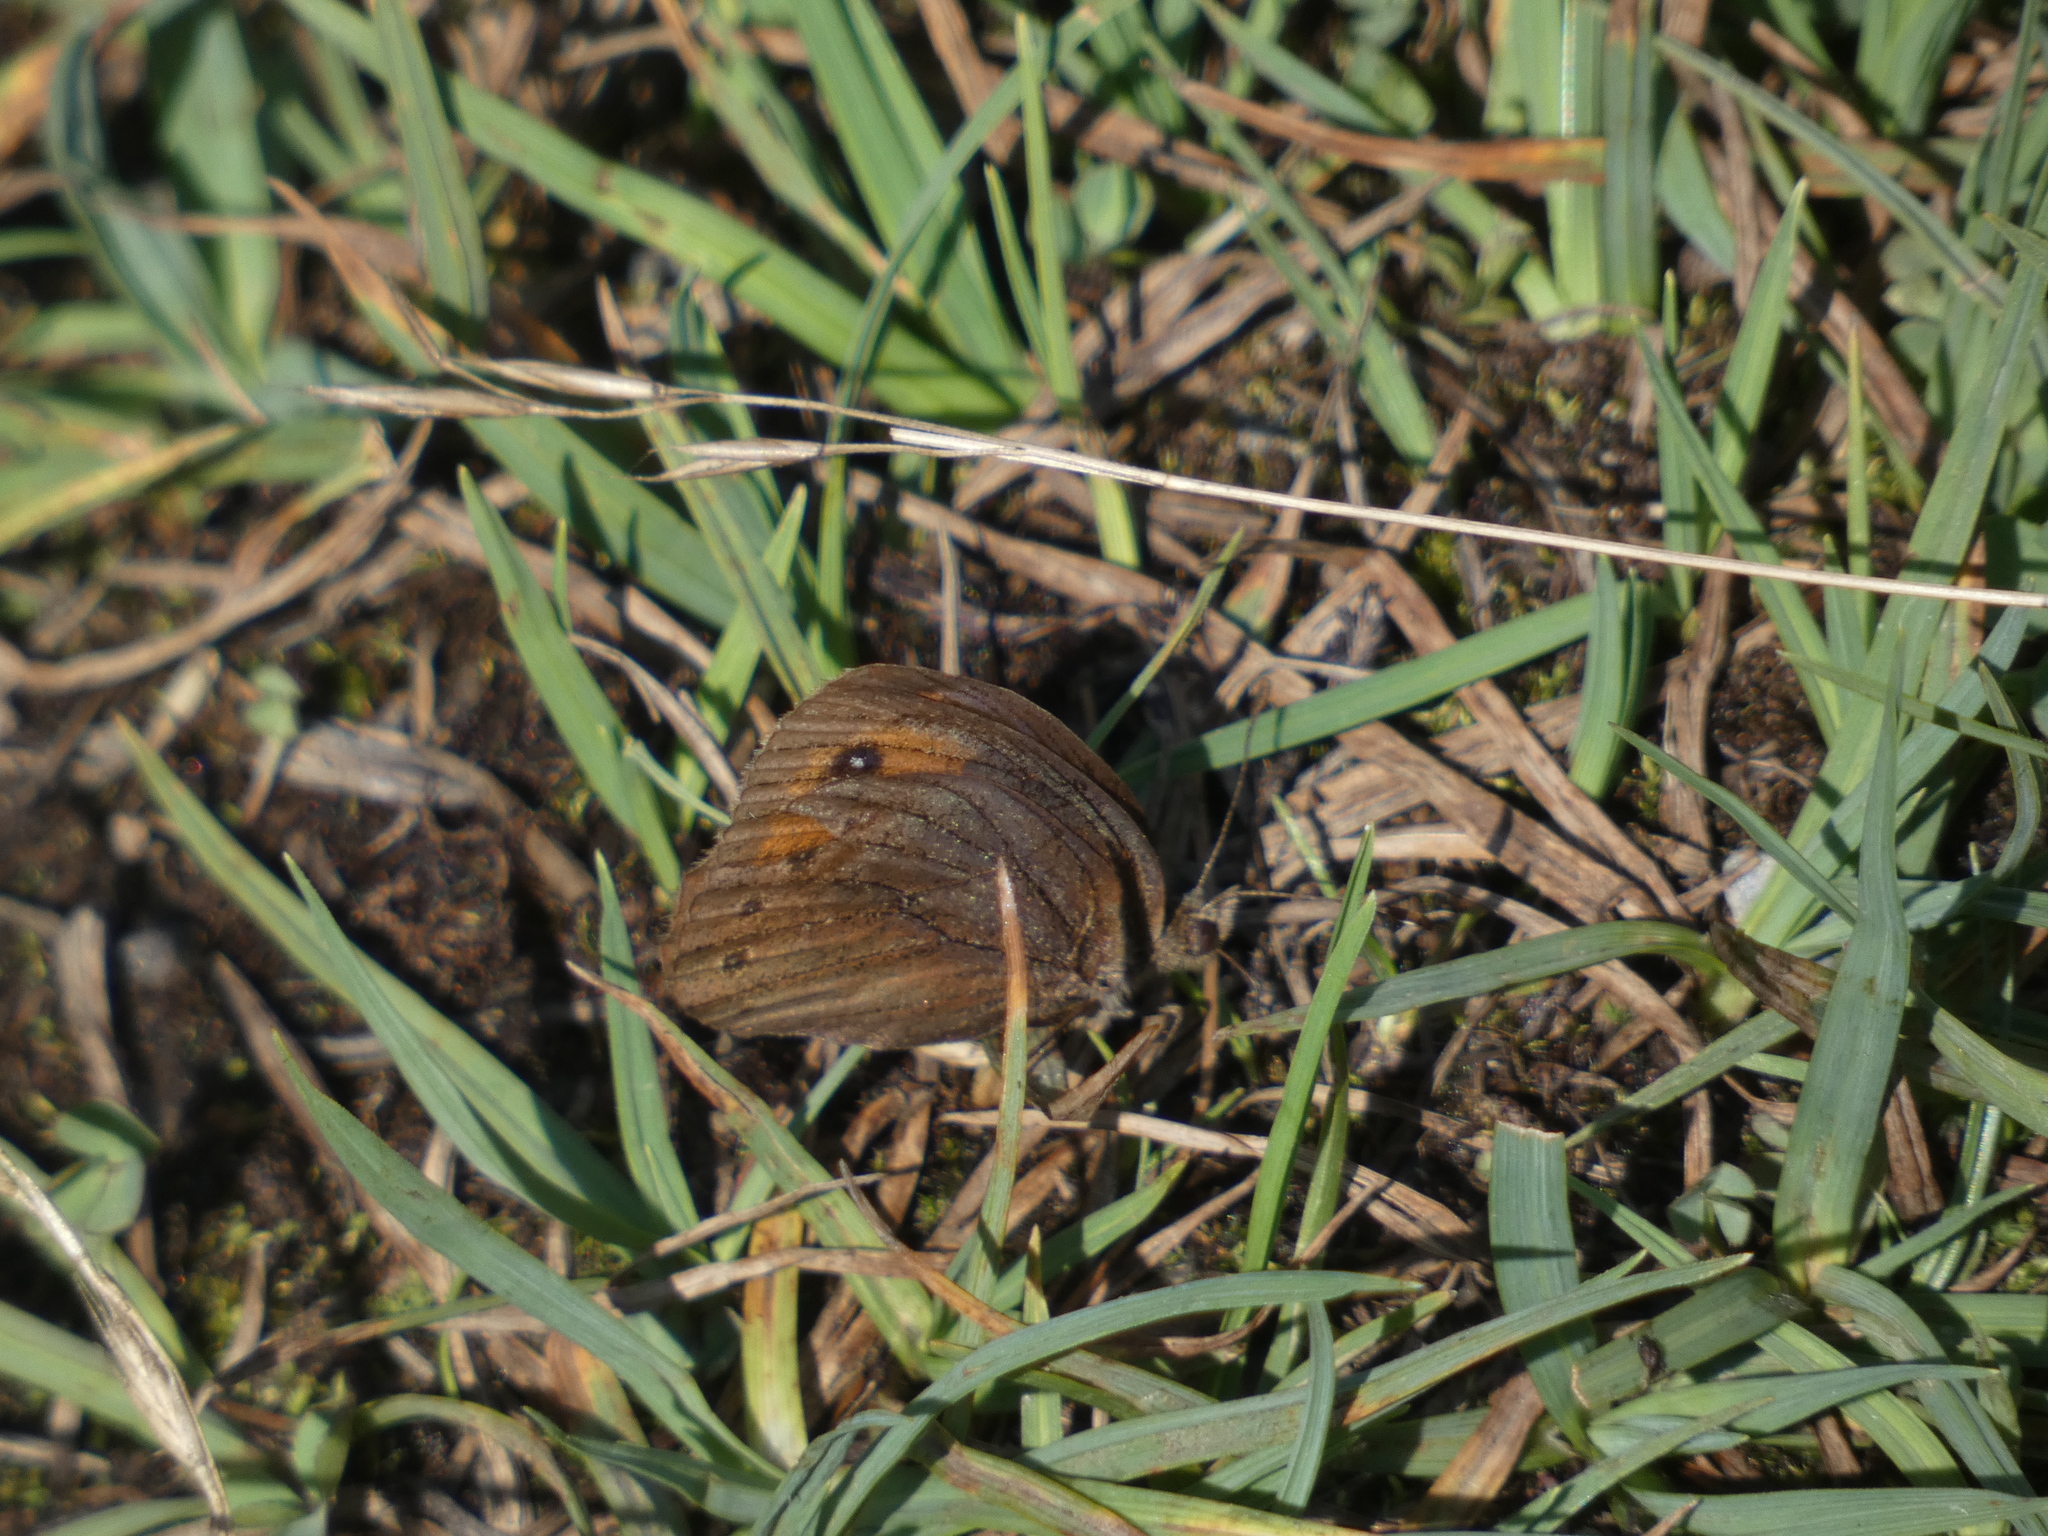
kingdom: Animalia
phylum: Arthropoda
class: Insecta
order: Lepidoptera
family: Nymphalidae
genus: Erebia
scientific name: Erebia meolans
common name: Piedmont ringlet
